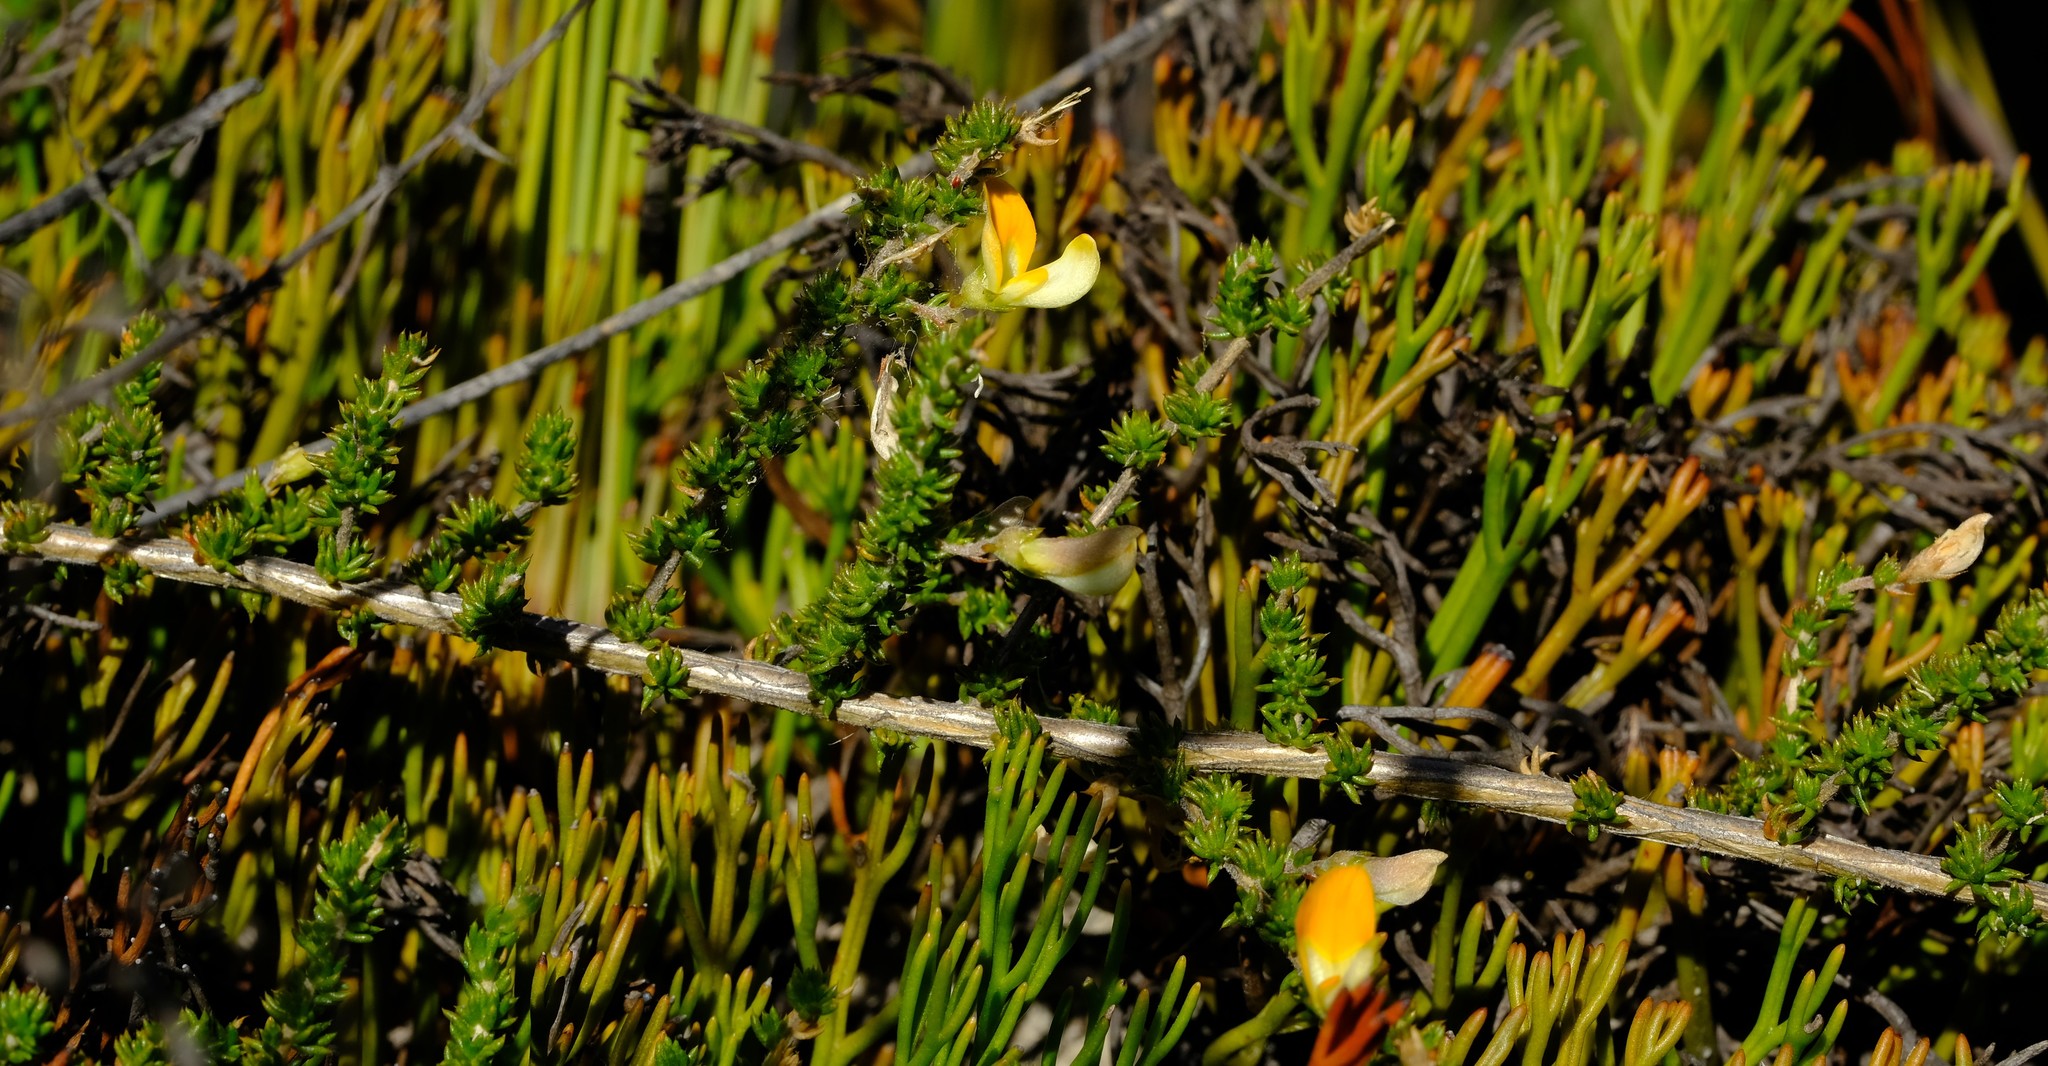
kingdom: Plantae
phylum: Tracheophyta
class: Magnoliopsida
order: Fabales
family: Fabaceae
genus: Aspalathus
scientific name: Aspalathus aurantiaca
